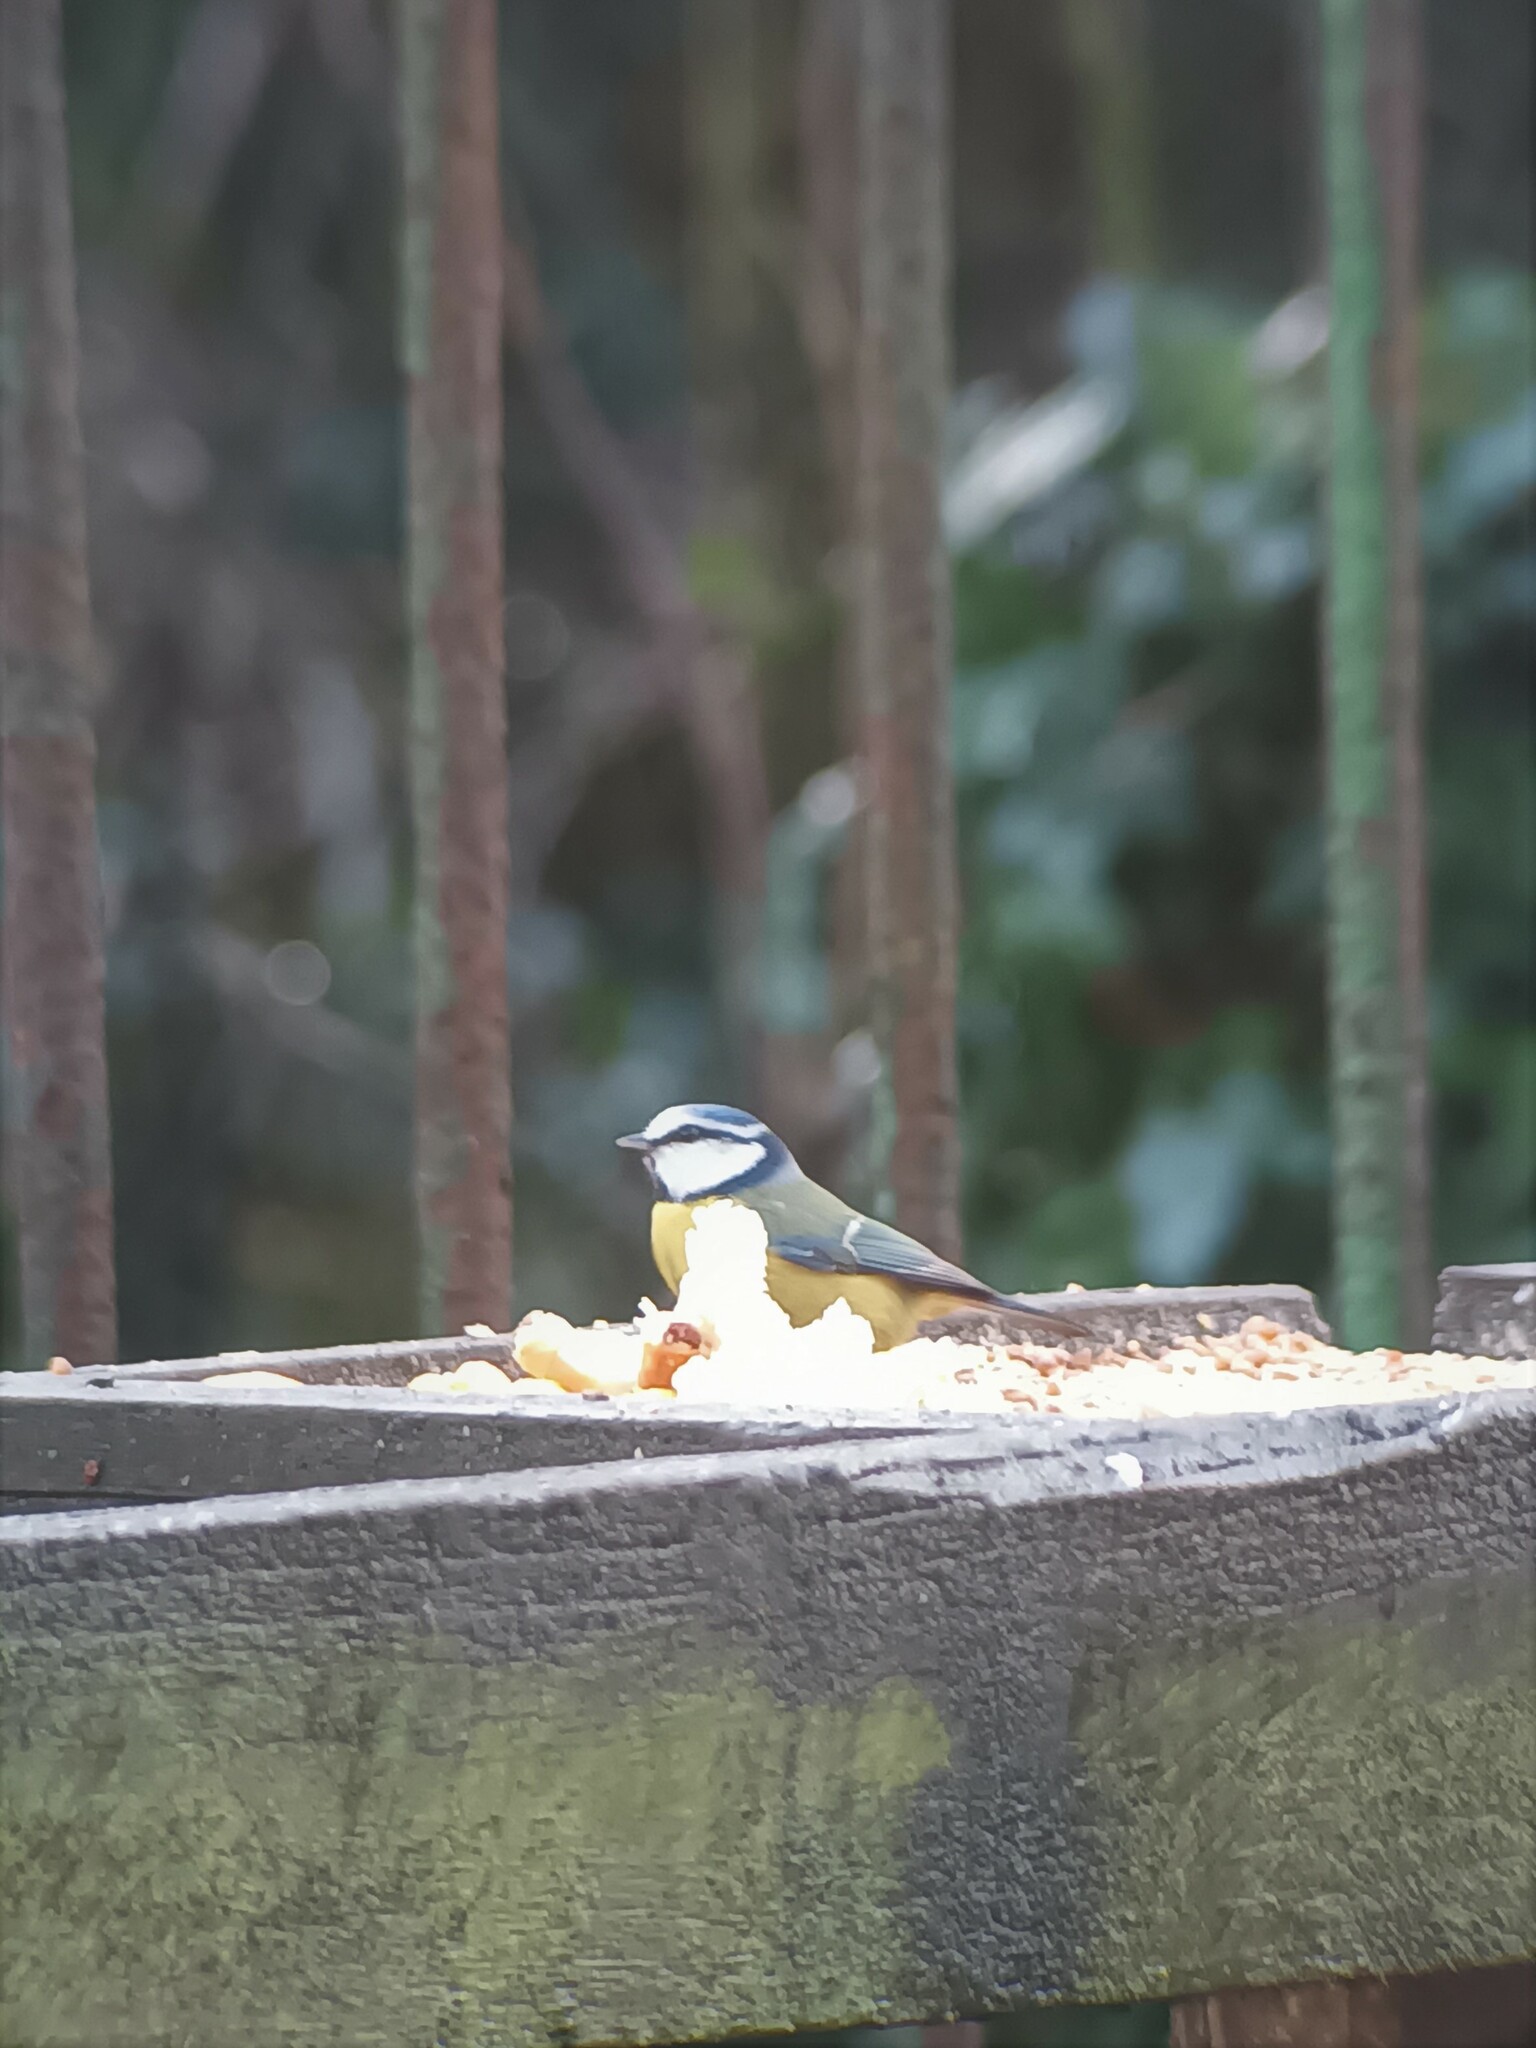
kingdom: Animalia
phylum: Chordata
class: Aves
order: Passeriformes
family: Paridae
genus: Cyanistes
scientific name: Cyanistes caeruleus
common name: Eurasian blue tit
